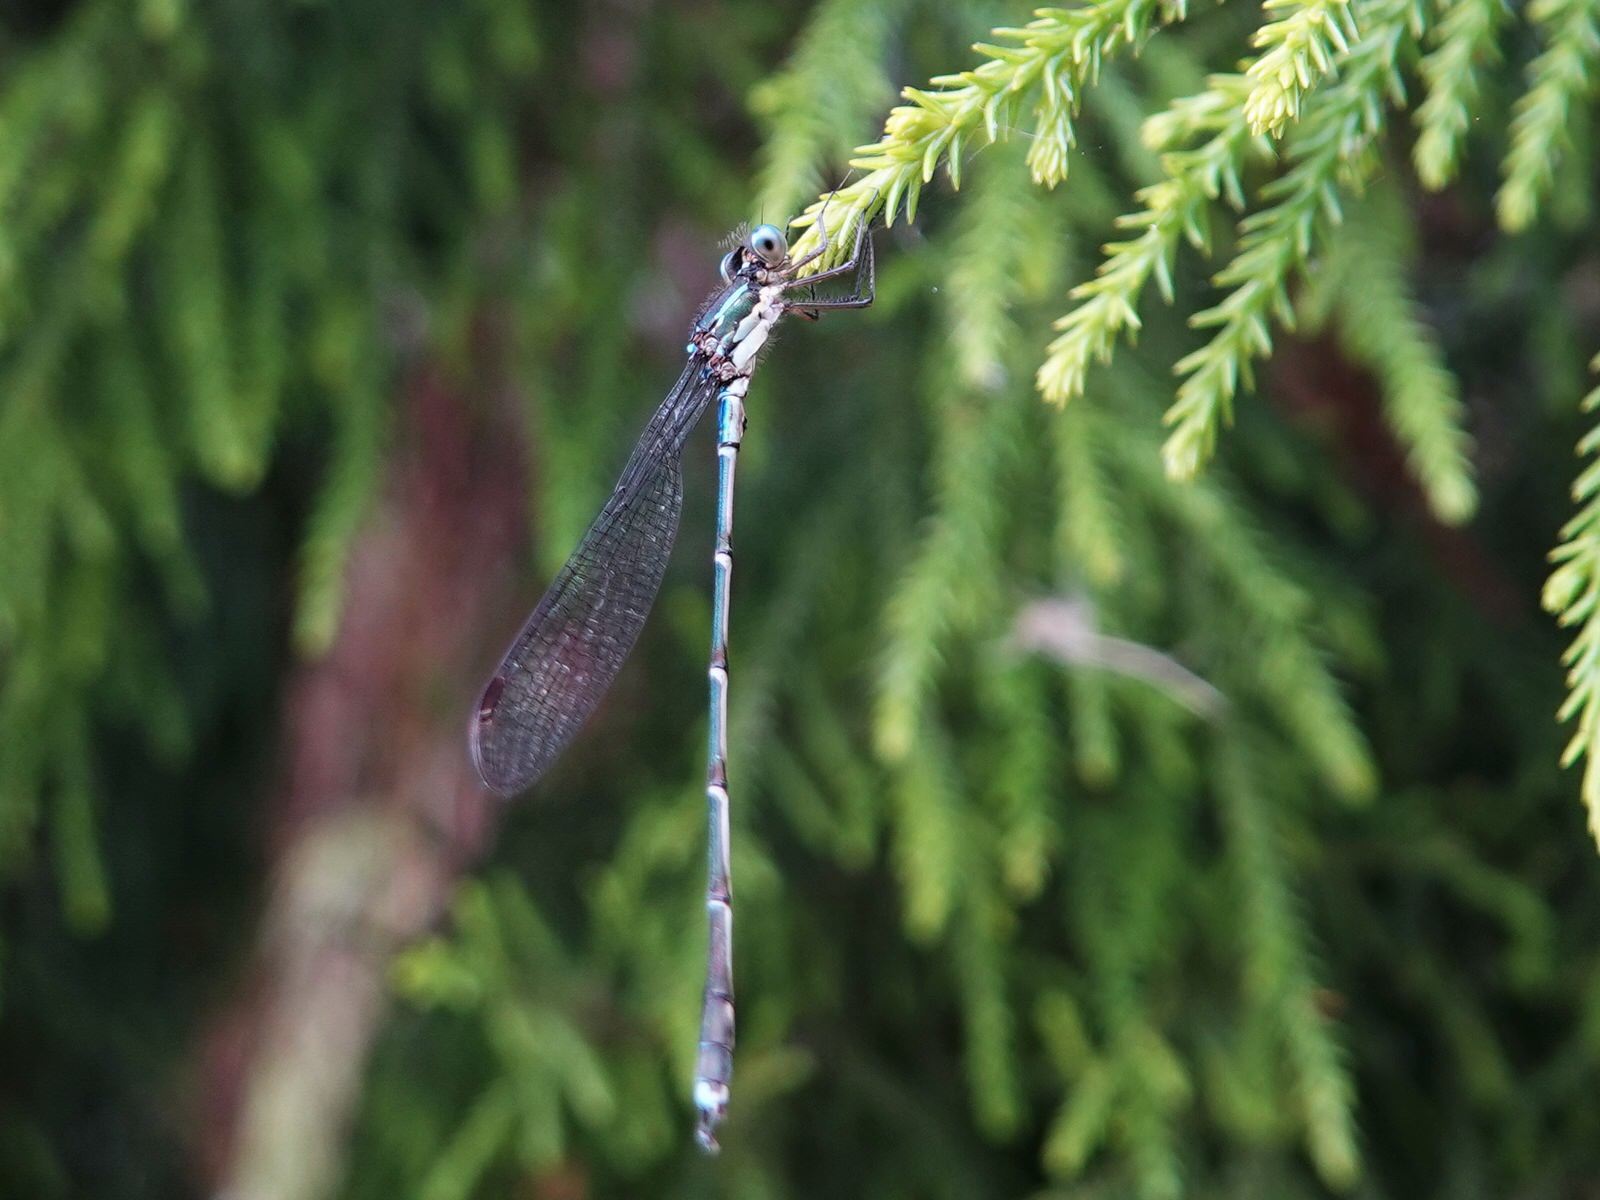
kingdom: Animalia
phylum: Arthropoda
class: Insecta
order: Odonata
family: Lestidae
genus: Austrolestes
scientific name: Austrolestes colensonis
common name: Blue damselfly
